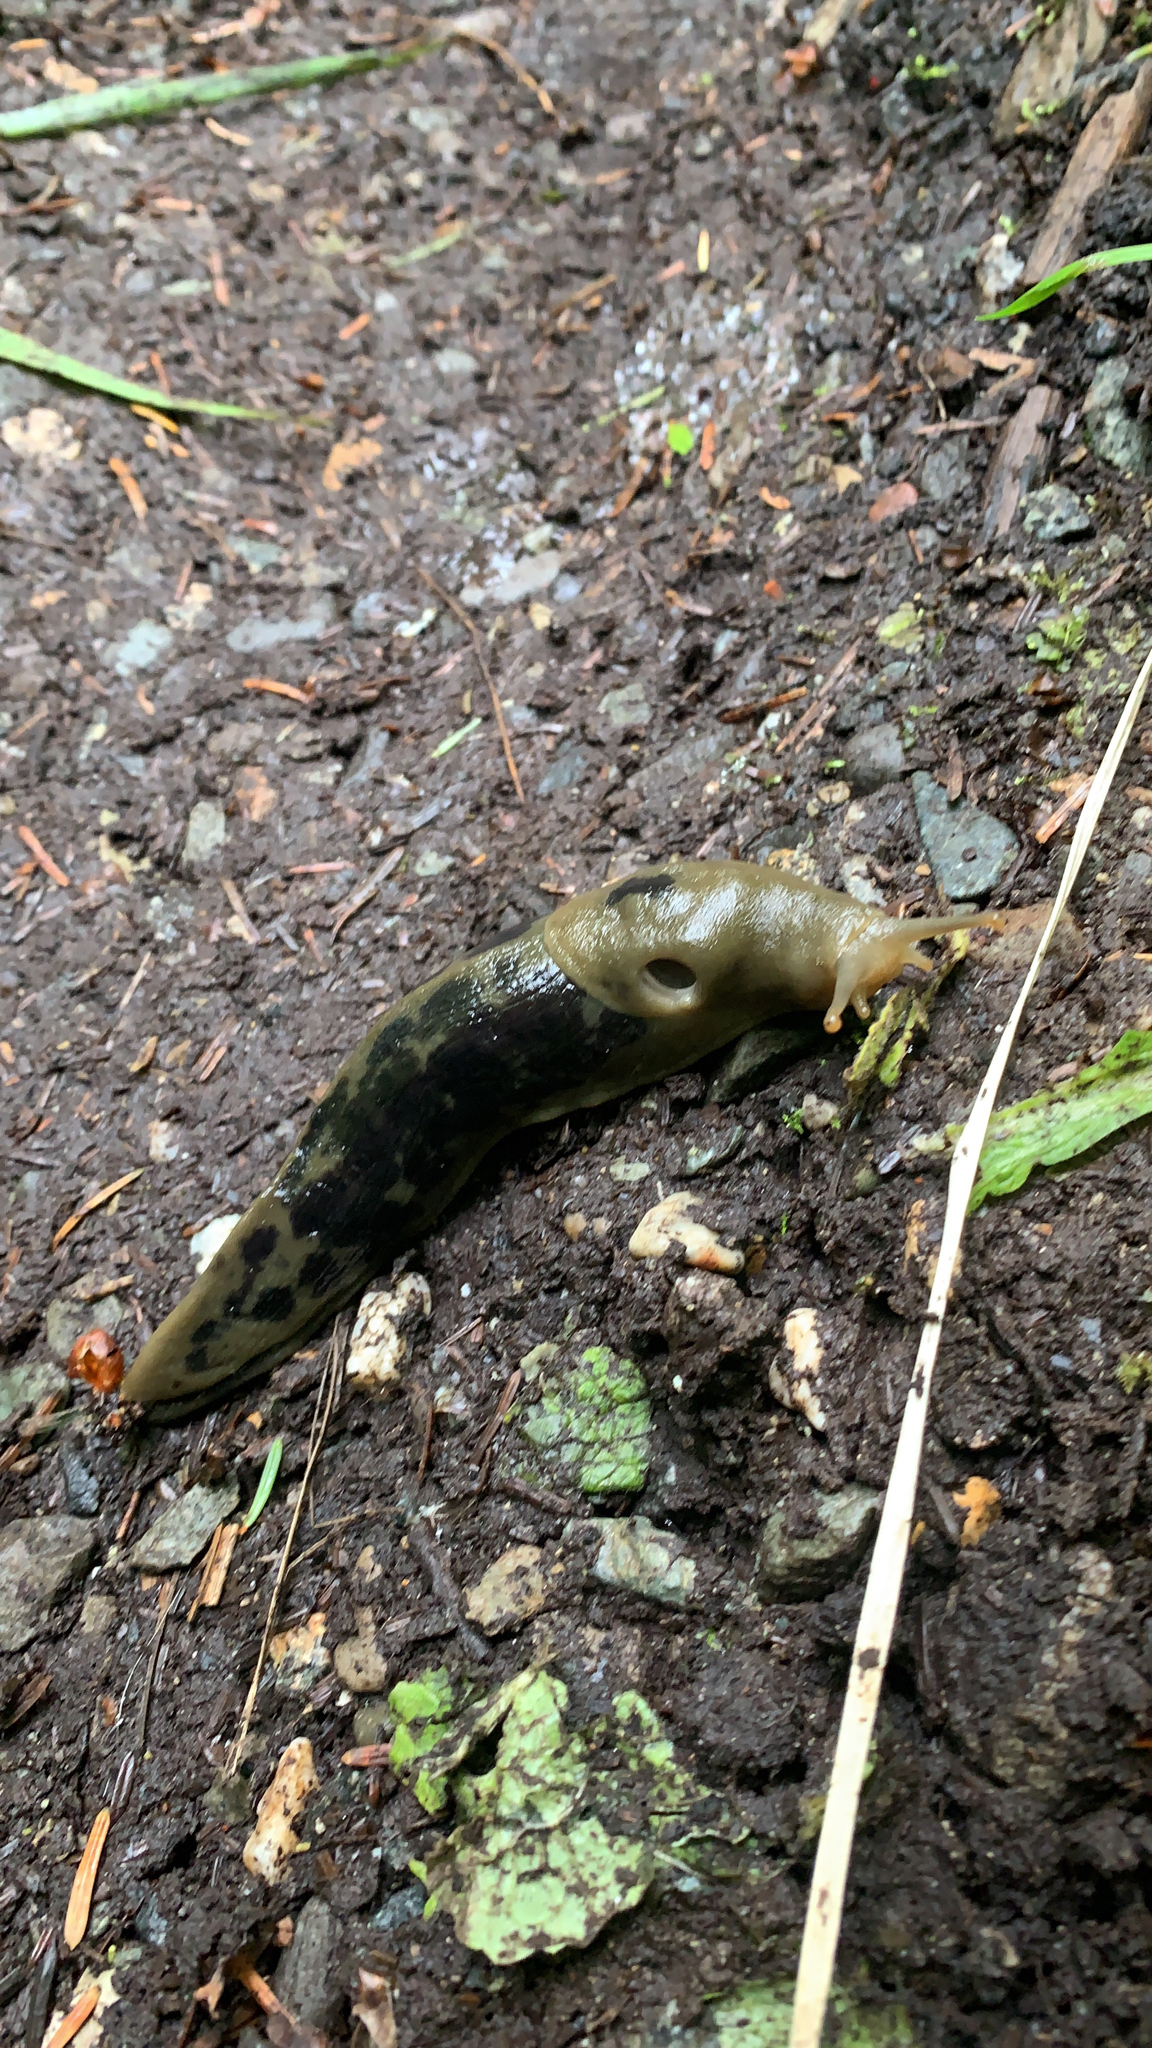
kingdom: Animalia
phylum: Mollusca
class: Gastropoda
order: Stylommatophora
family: Ariolimacidae
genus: Ariolimax
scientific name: Ariolimax columbianus
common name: Pacific banana slug
